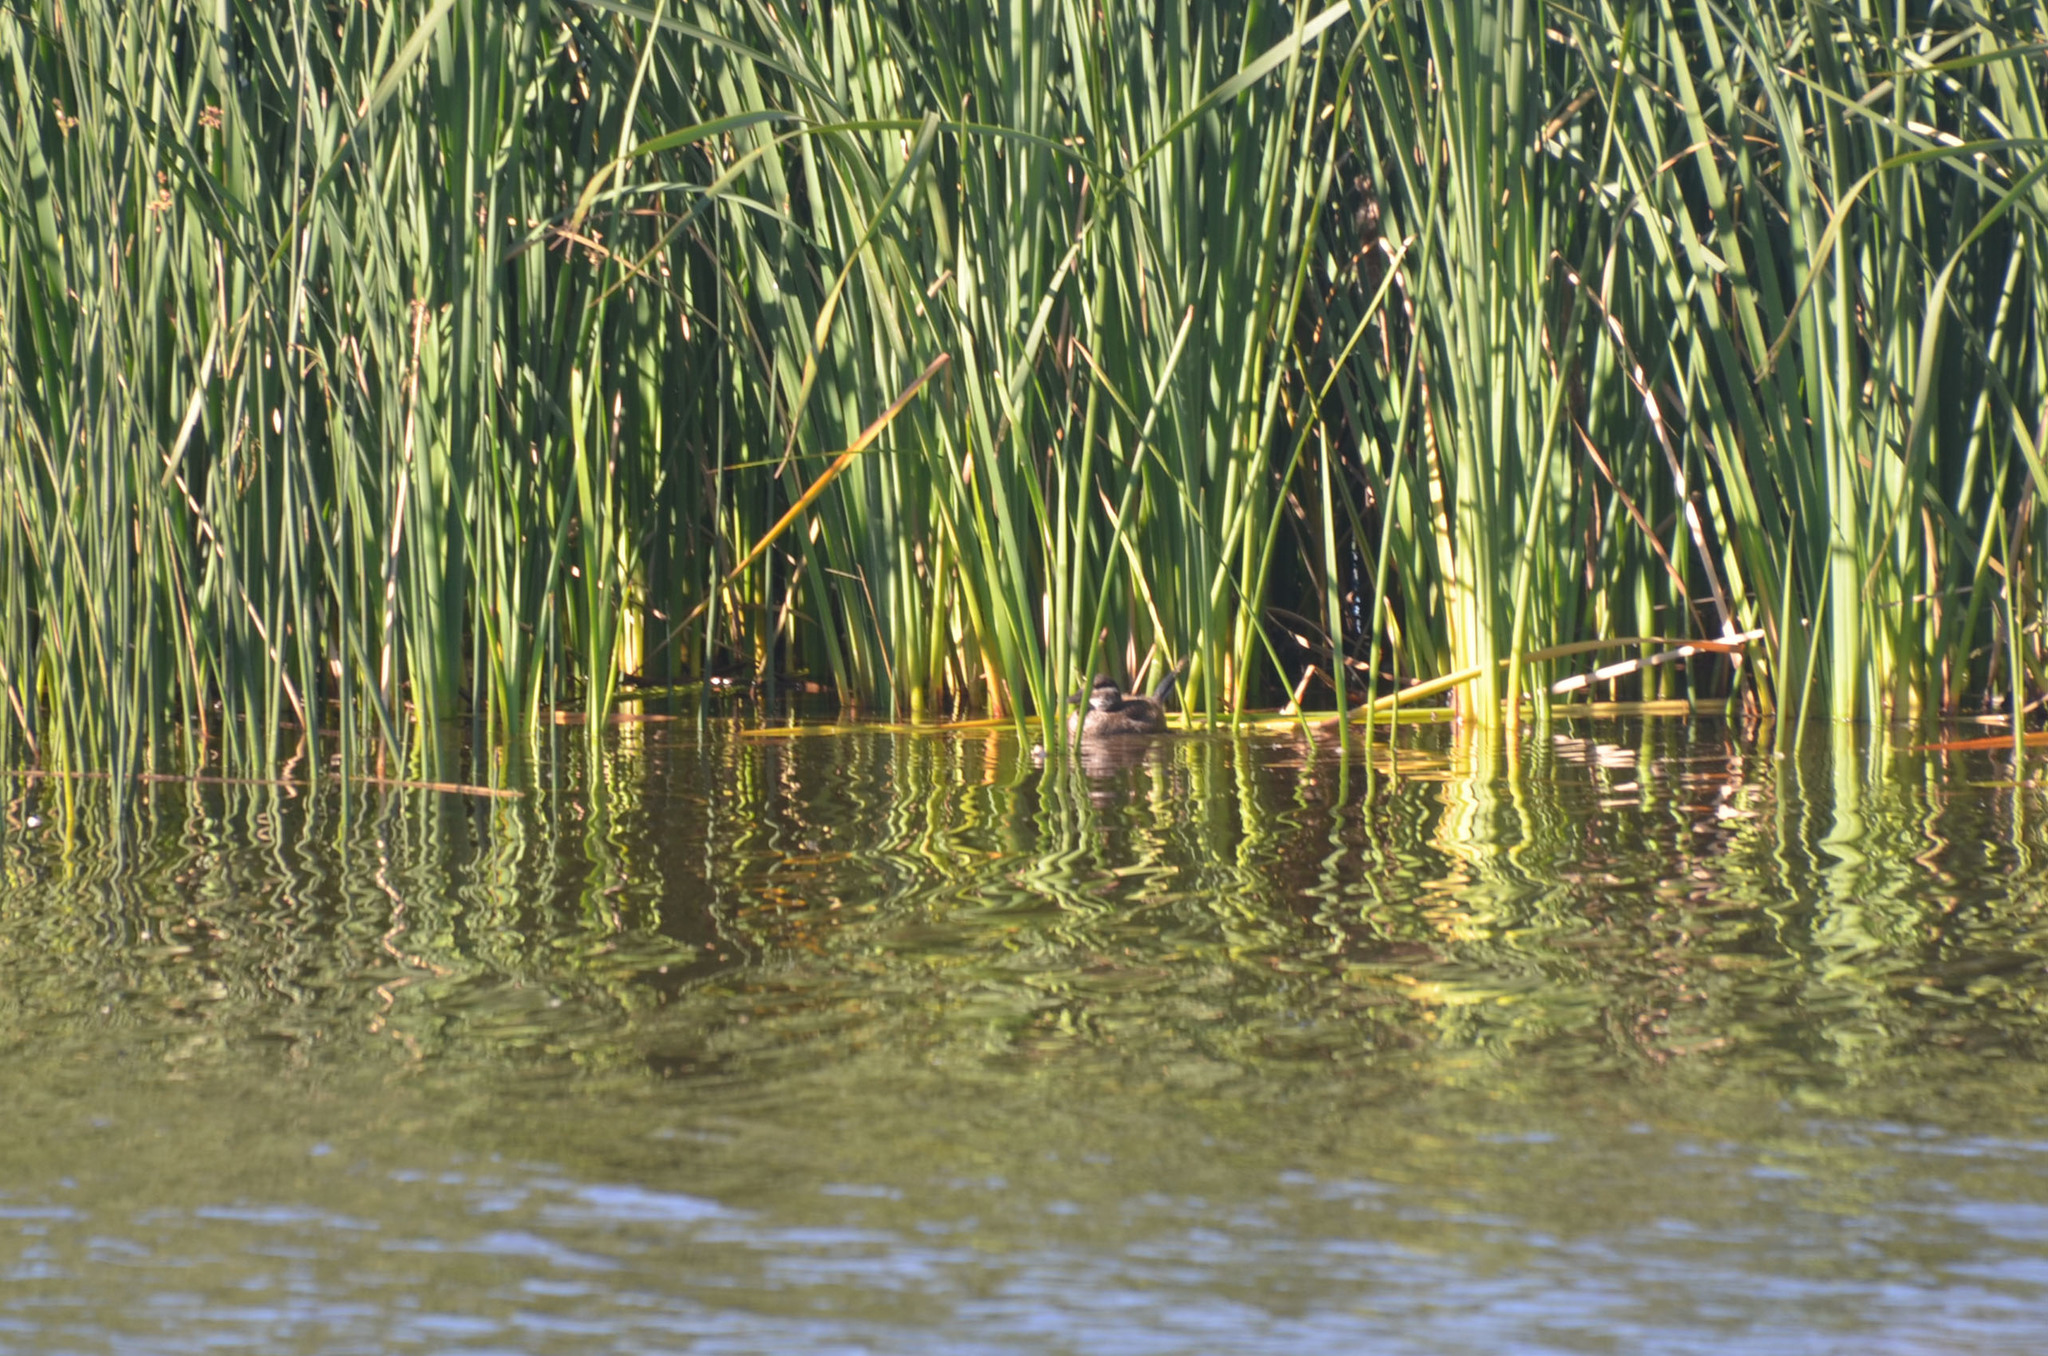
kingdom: Animalia
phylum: Chordata
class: Aves
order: Anseriformes
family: Anatidae
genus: Oxyura
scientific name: Oxyura vittata
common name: Lake duck
